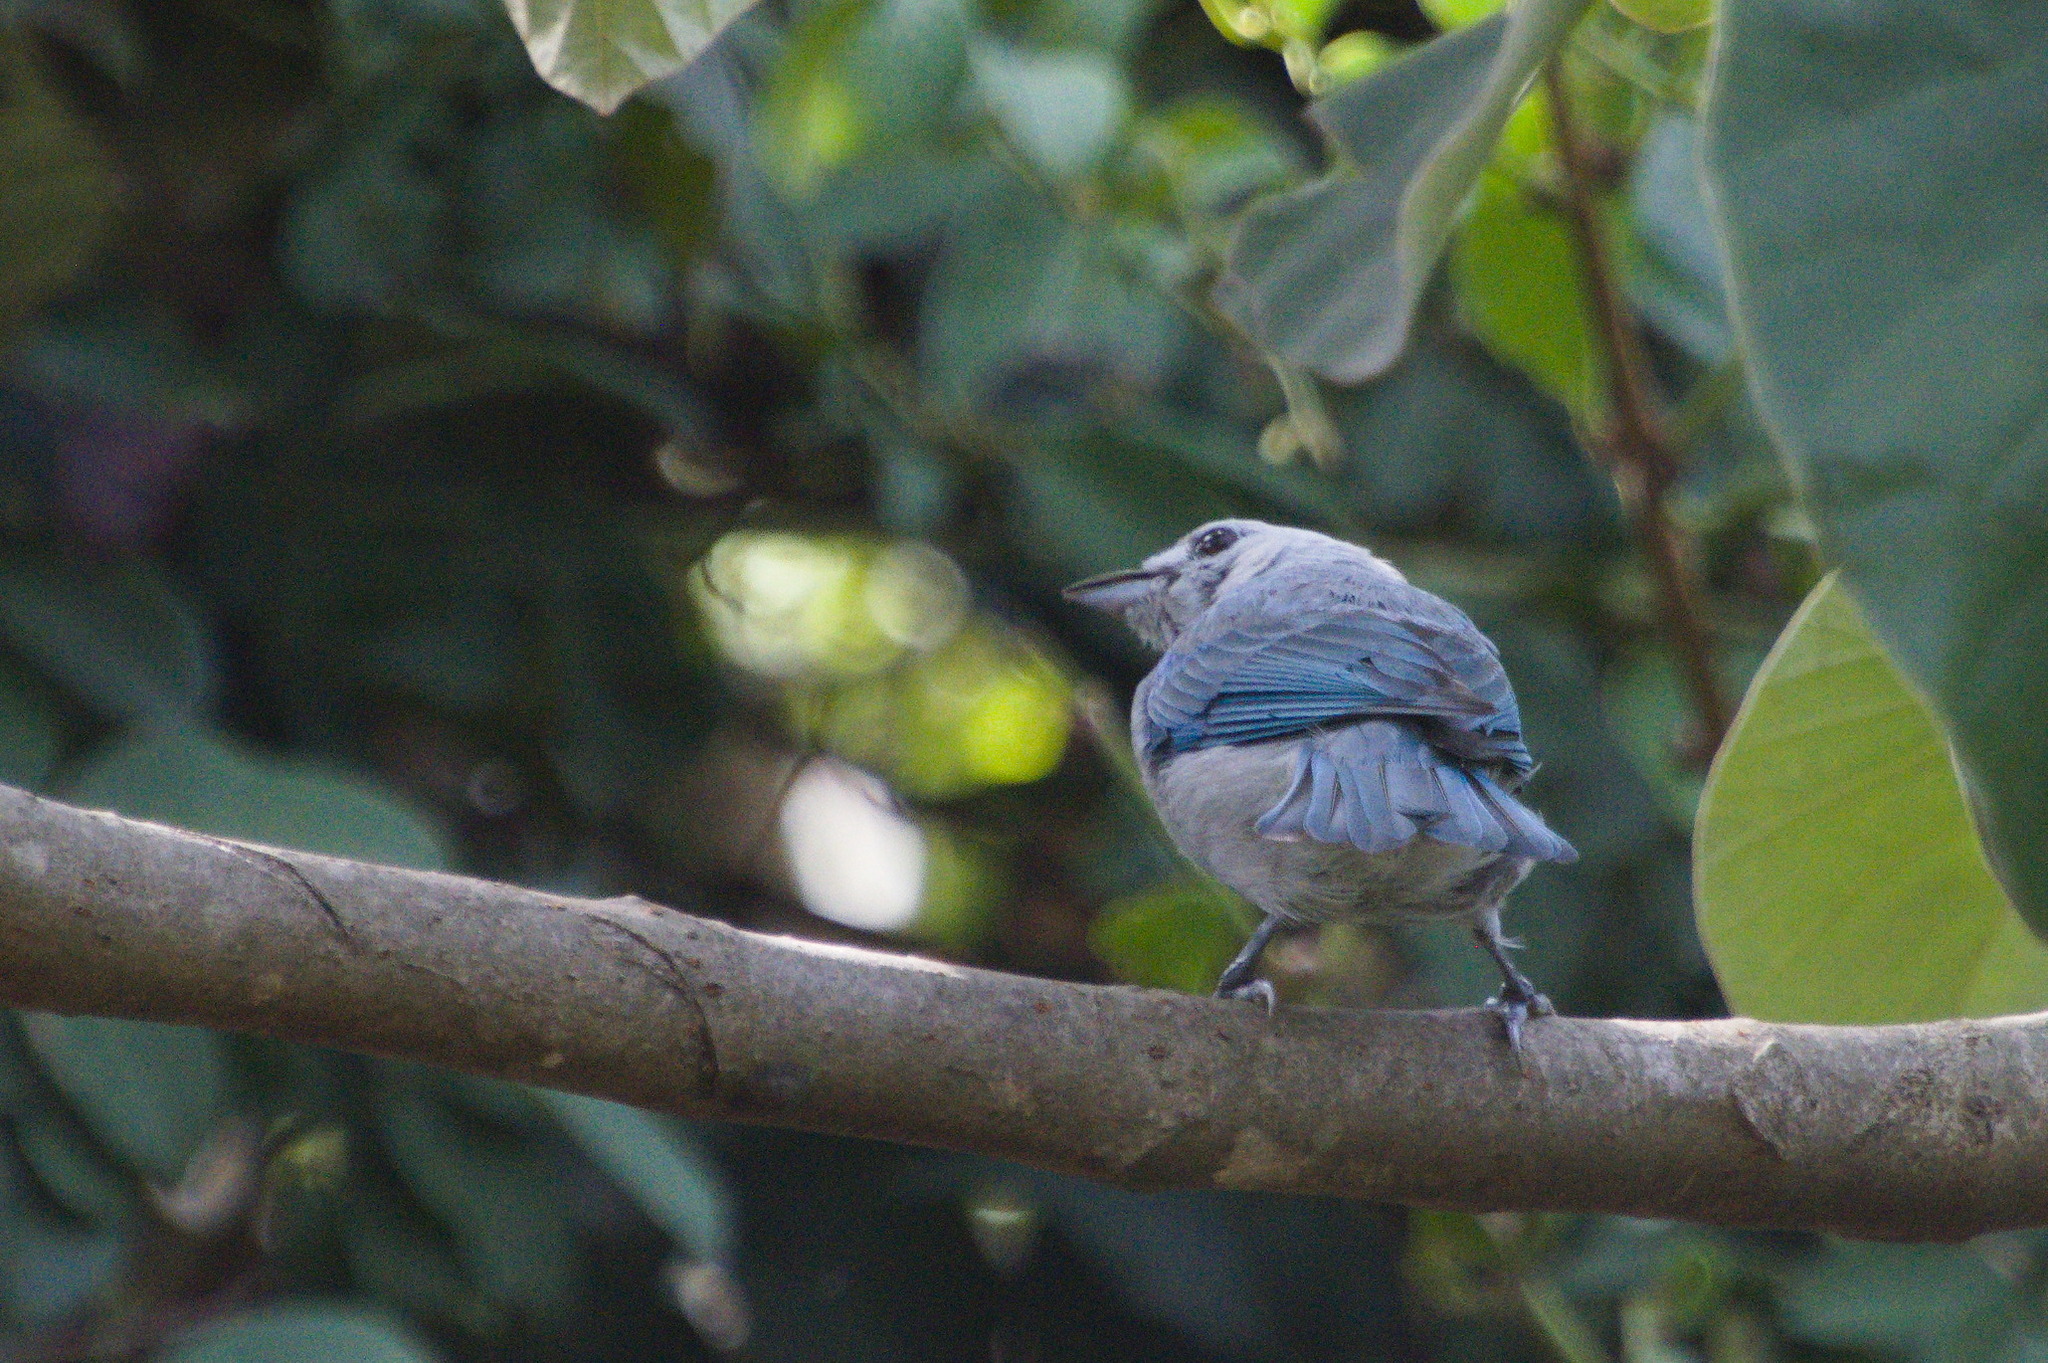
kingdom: Animalia
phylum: Chordata
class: Aves
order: Passeriformes
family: Thraupidae
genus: Thraupis
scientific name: Thraupis episcopus
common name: Blue-grey tanager
